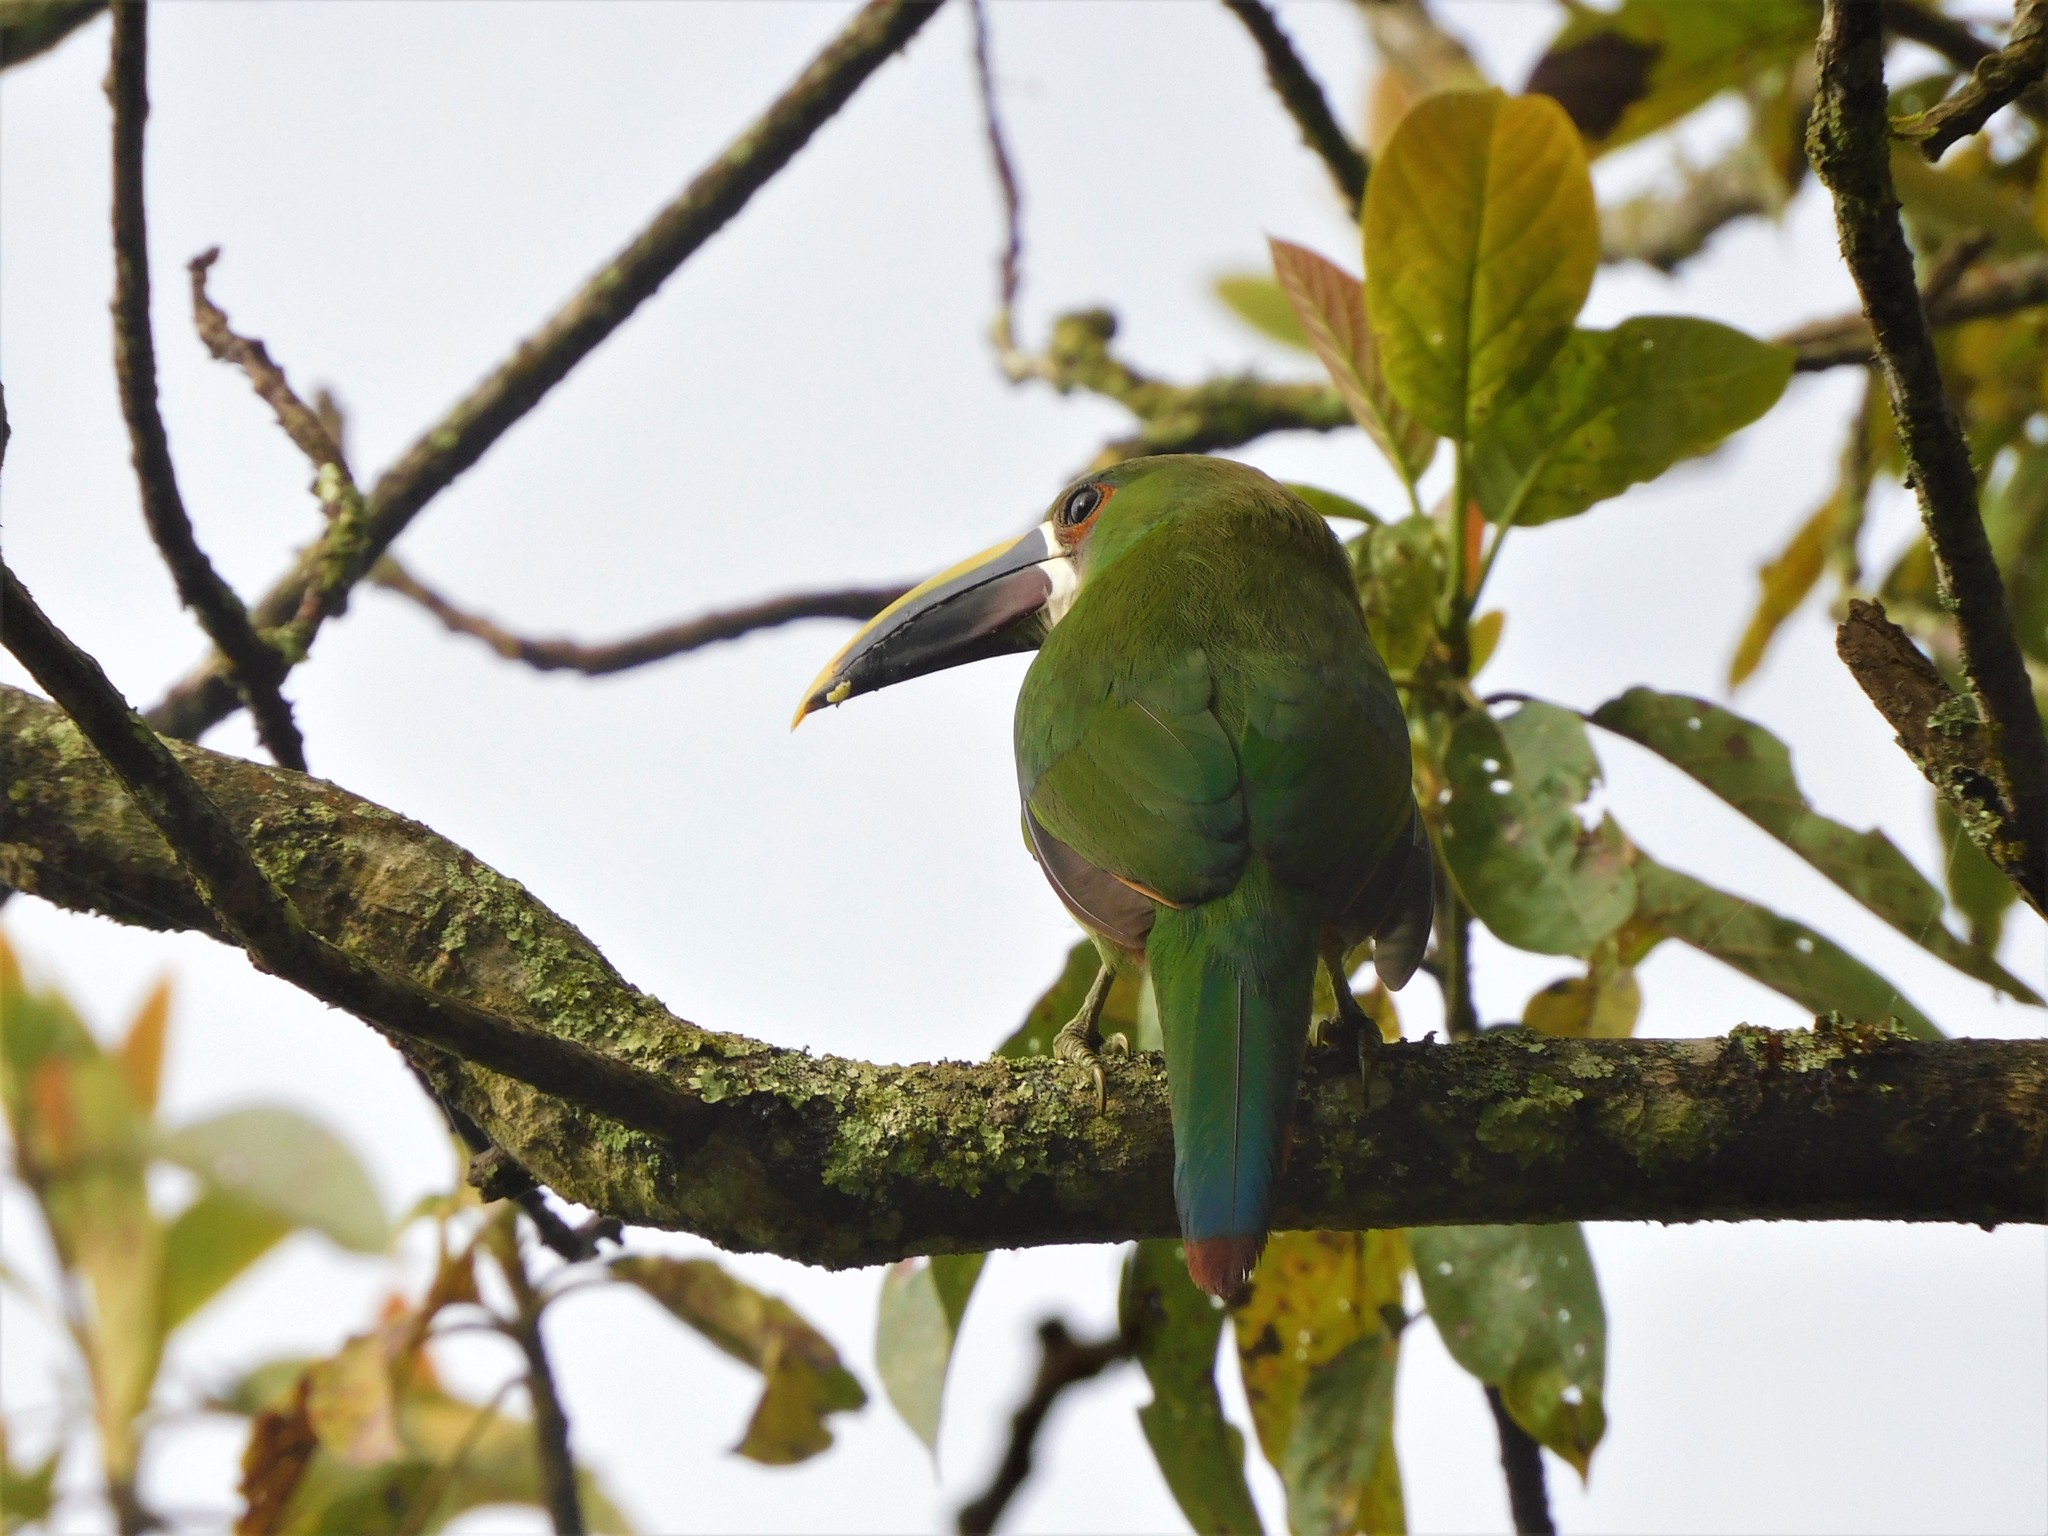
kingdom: Animalia
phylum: Chordata
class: Aves
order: Piciformes
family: Ramphastidae
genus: Aulacorhynchus
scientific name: Aulacorhynchus albivitta
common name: White-throated toucanet
